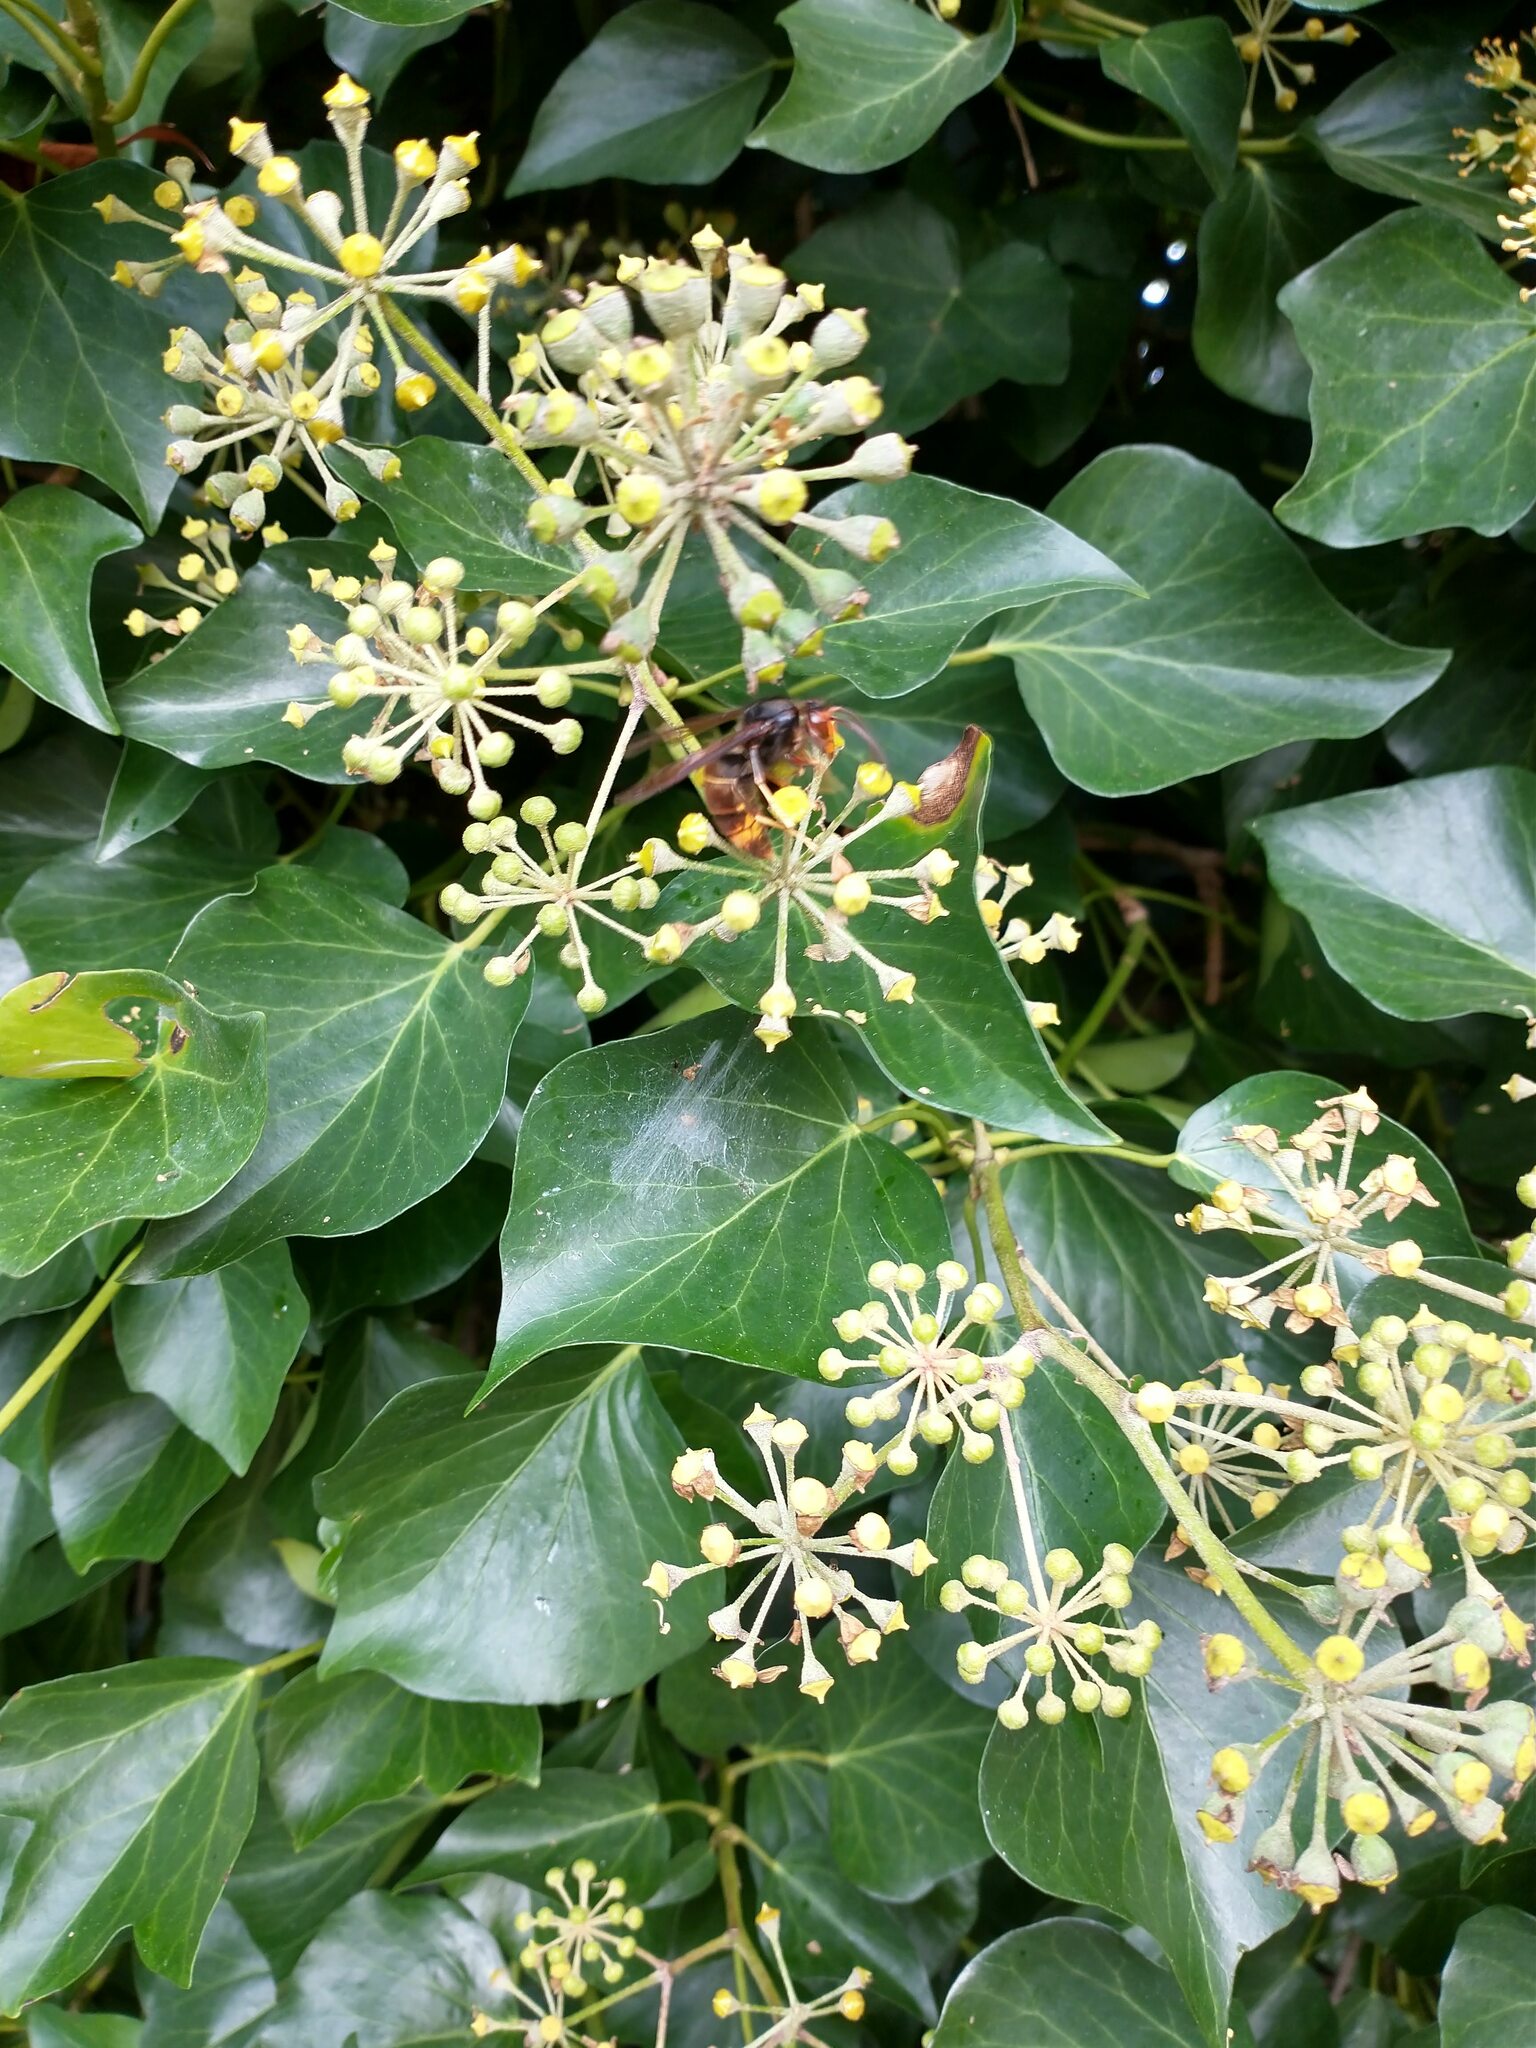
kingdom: Animalia
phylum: Arthropoda
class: Insecta
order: Hymenoptera
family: Vespidae
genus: Vespa
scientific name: Vespa velutina
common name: Asian hornet
